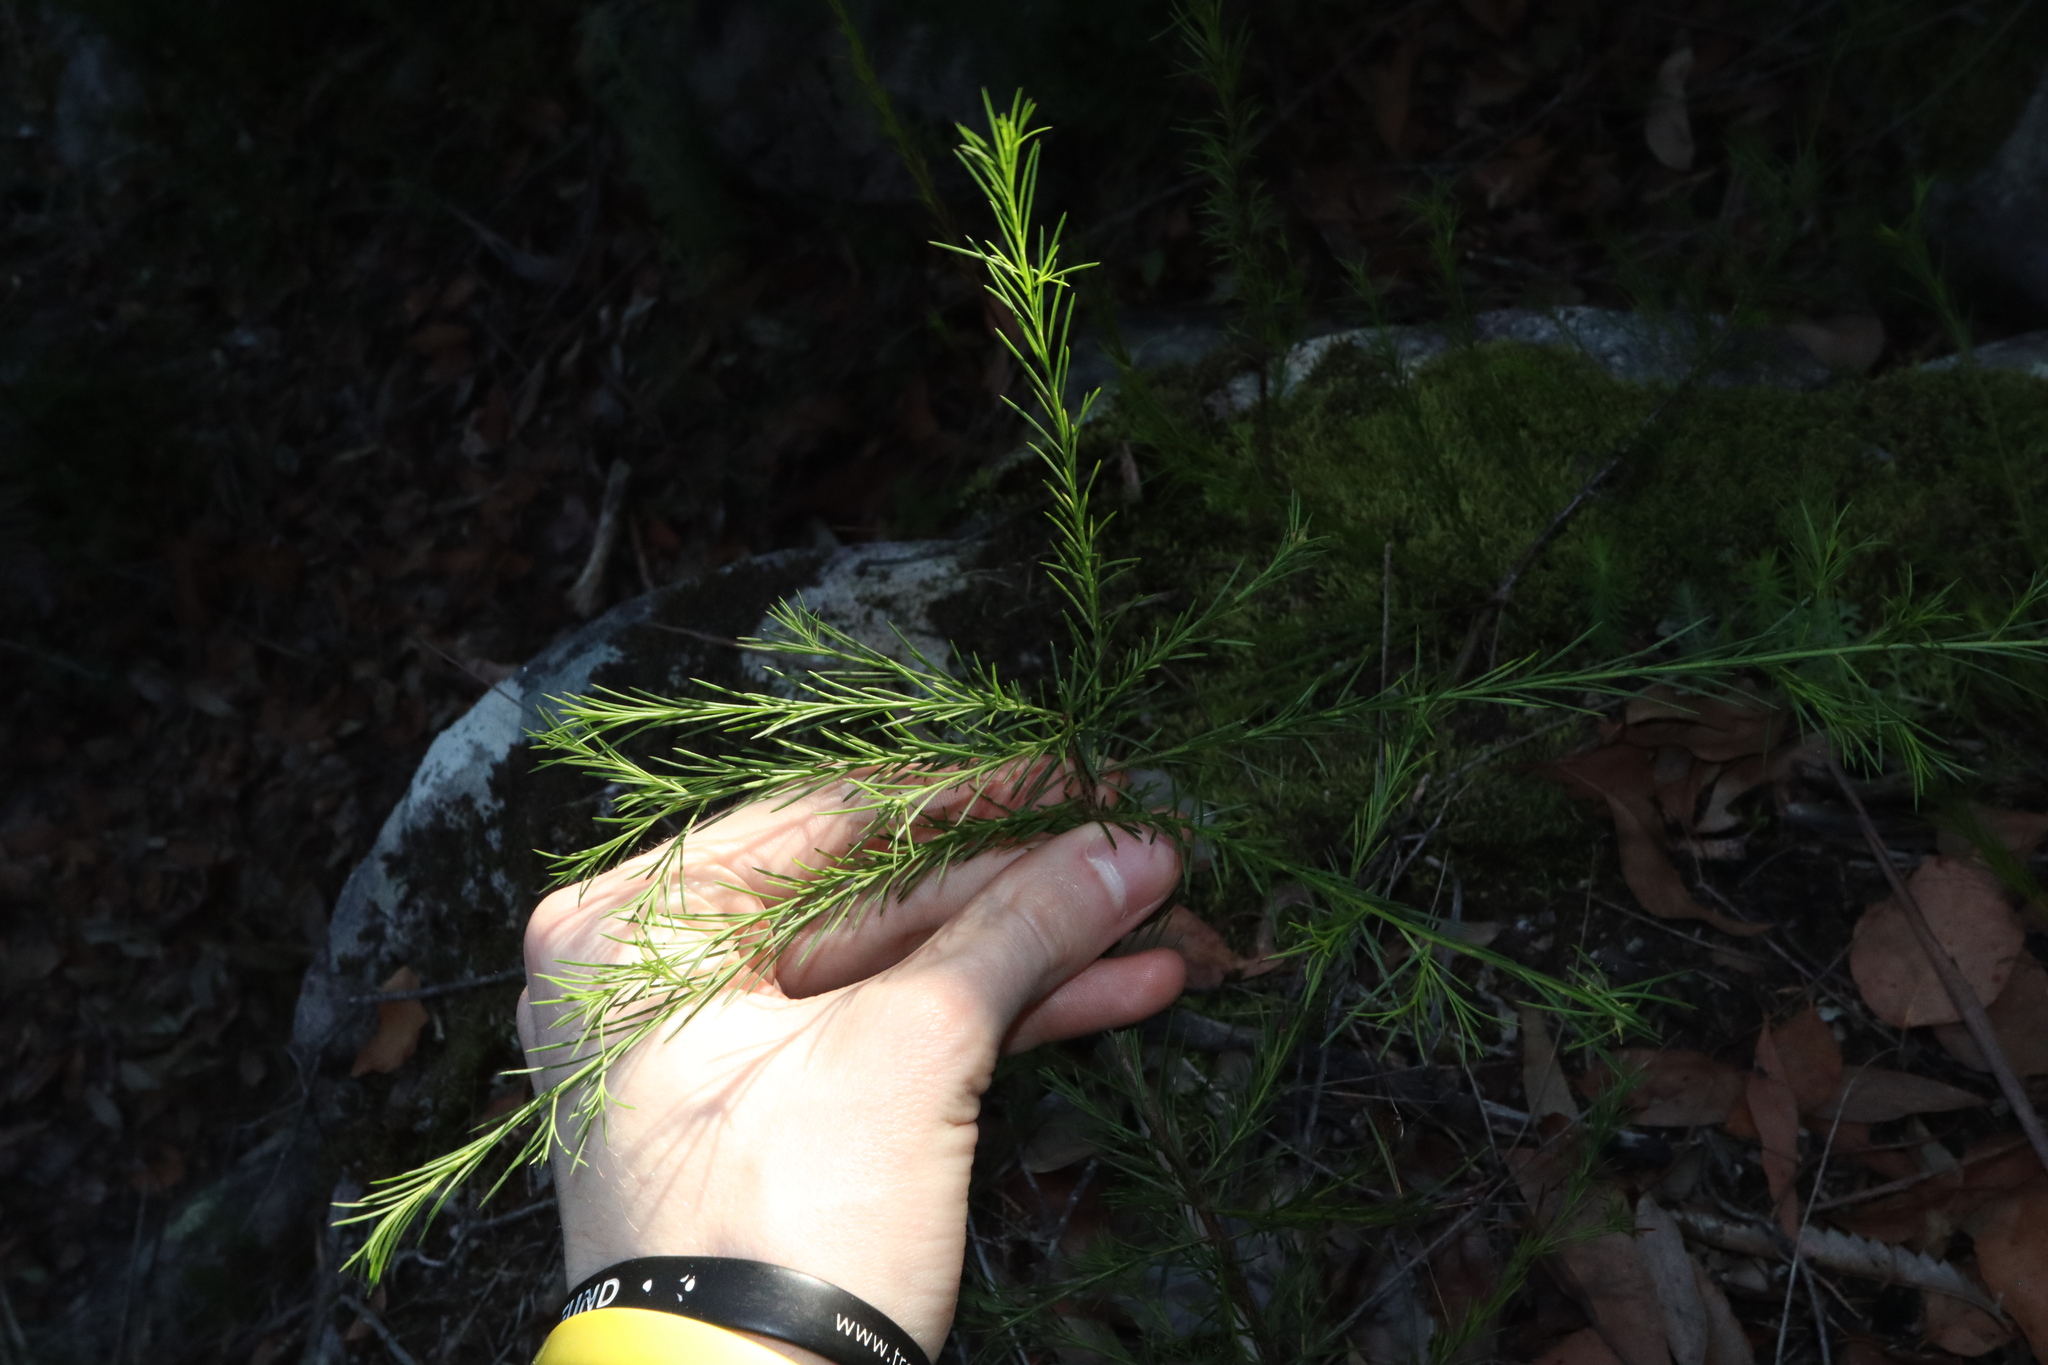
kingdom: Plantae
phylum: Tracheophyta
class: Magnoliopsida
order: Apiales
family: Apiaceae
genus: Platysace
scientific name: Platysace linearifolia
